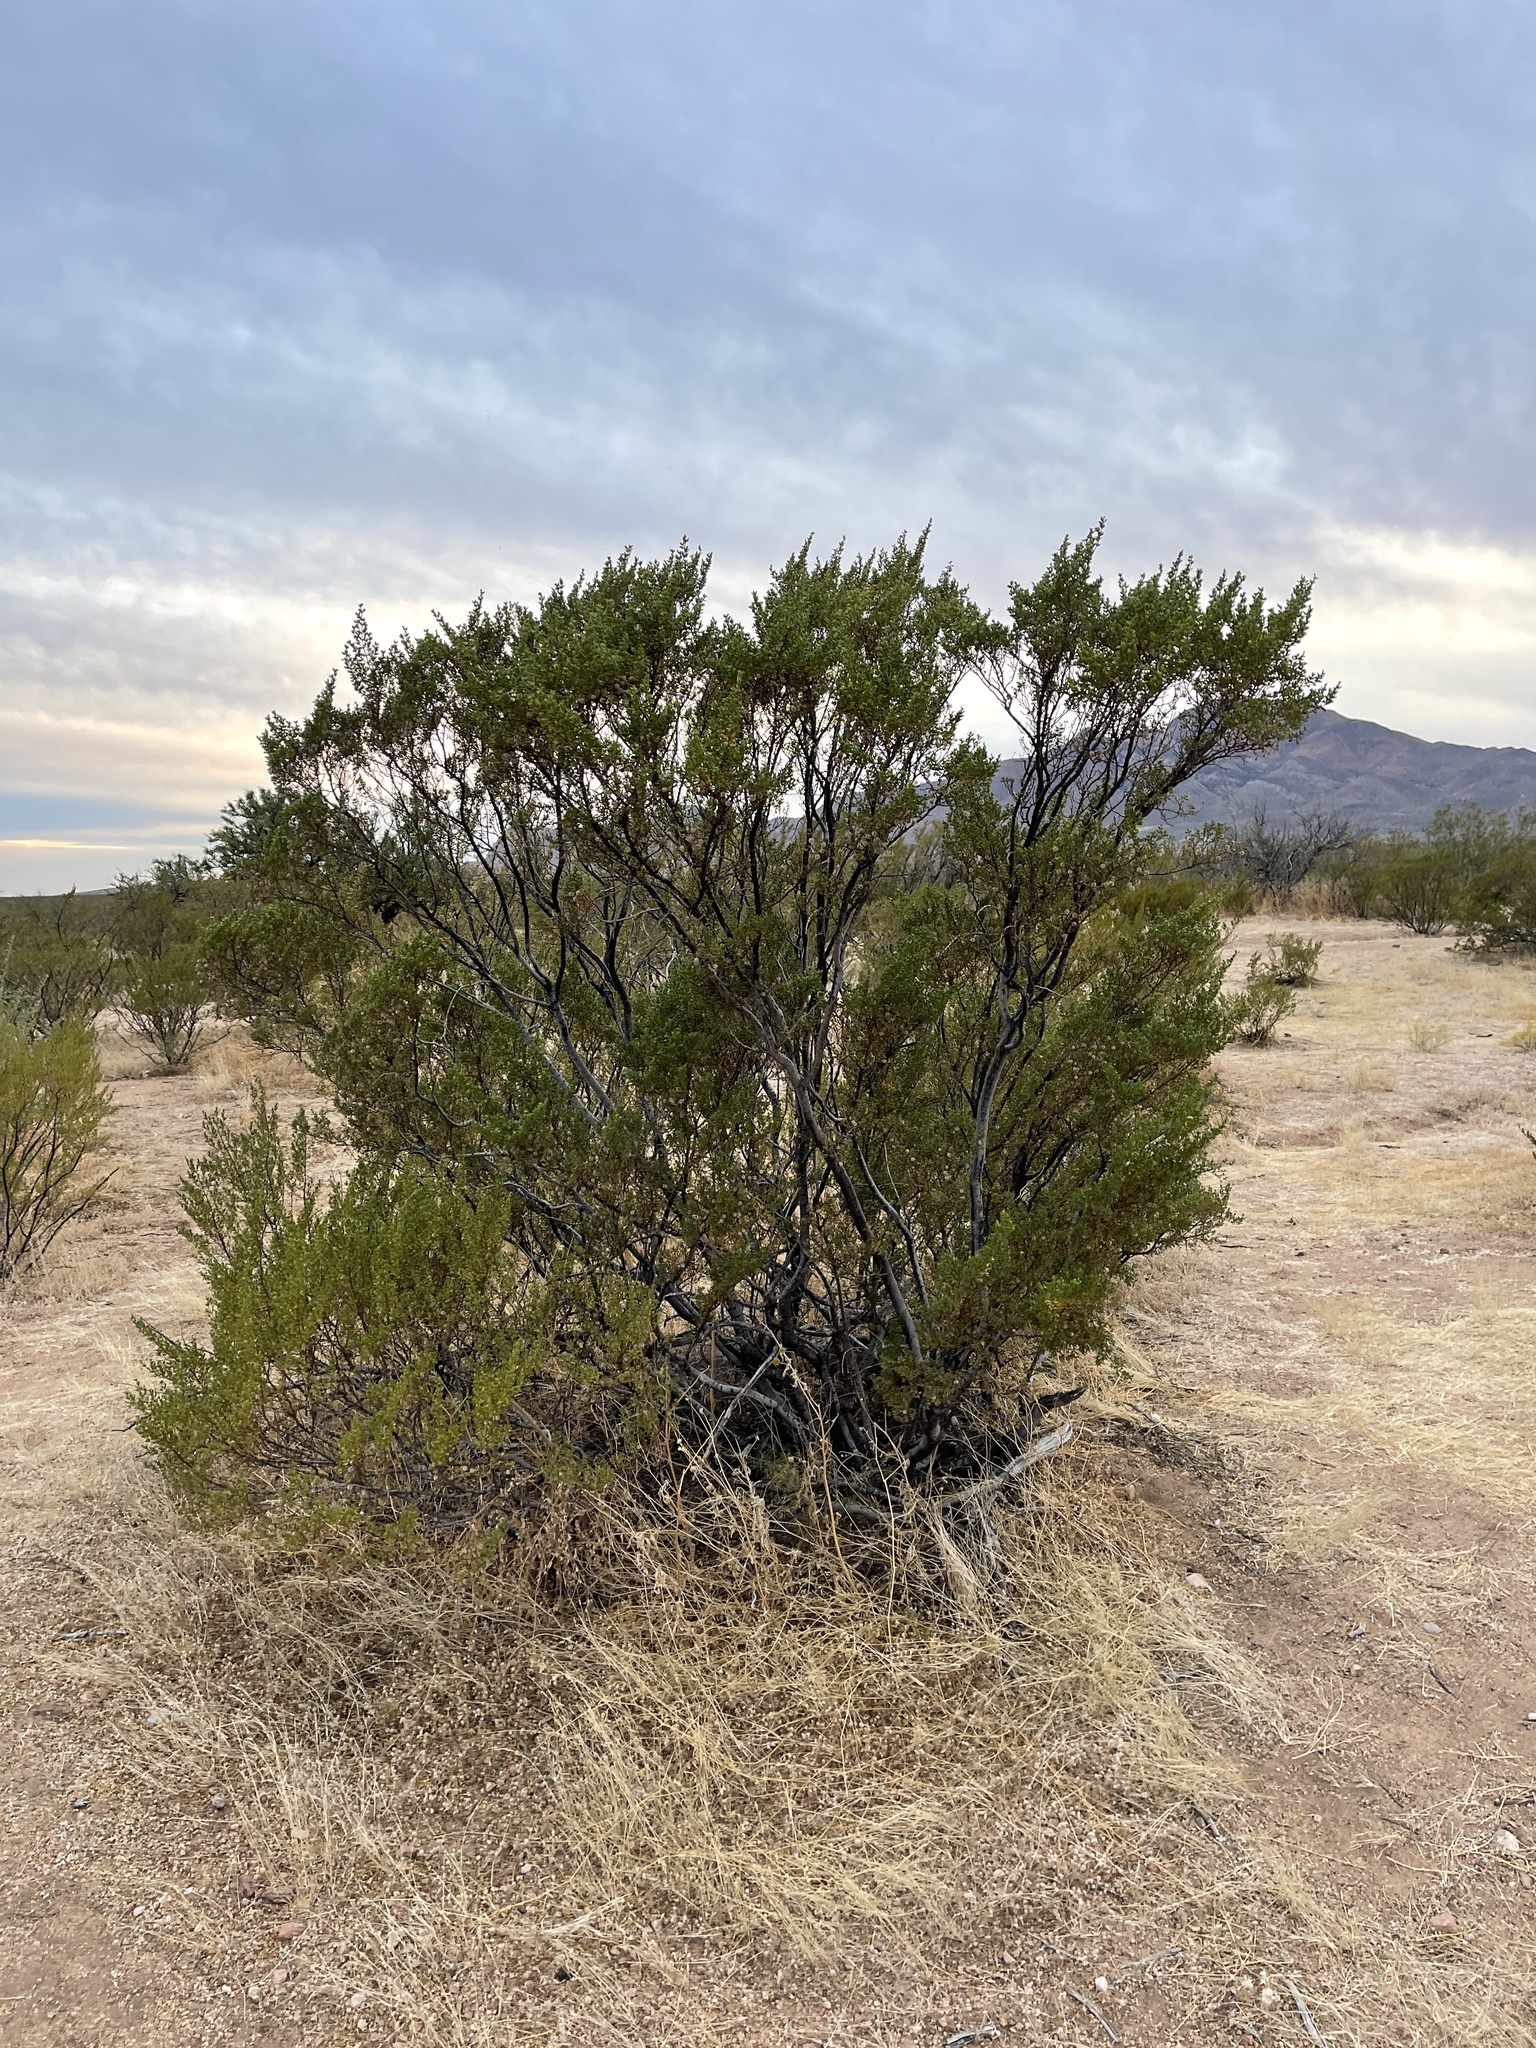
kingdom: Plantae
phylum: Tracheophyta
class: Magnoliopsida
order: Zygophyllales
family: Zygophyllaceae
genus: Larrea
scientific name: Larrea tridentata
